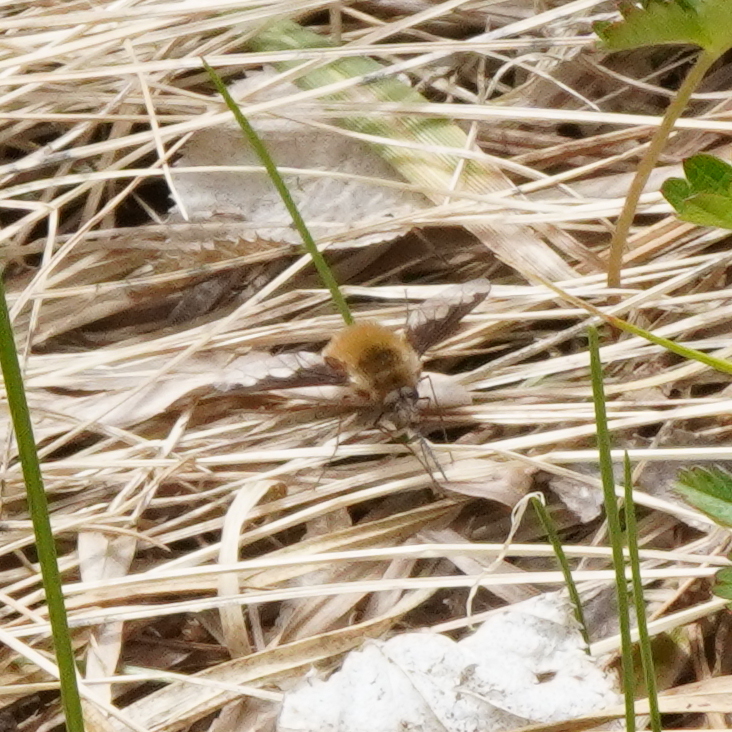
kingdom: Animalia
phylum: Arthropoda
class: Insecta
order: Diptera
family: Bombyliidae
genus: Bombylius
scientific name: Bombylius major
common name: Bee fly
